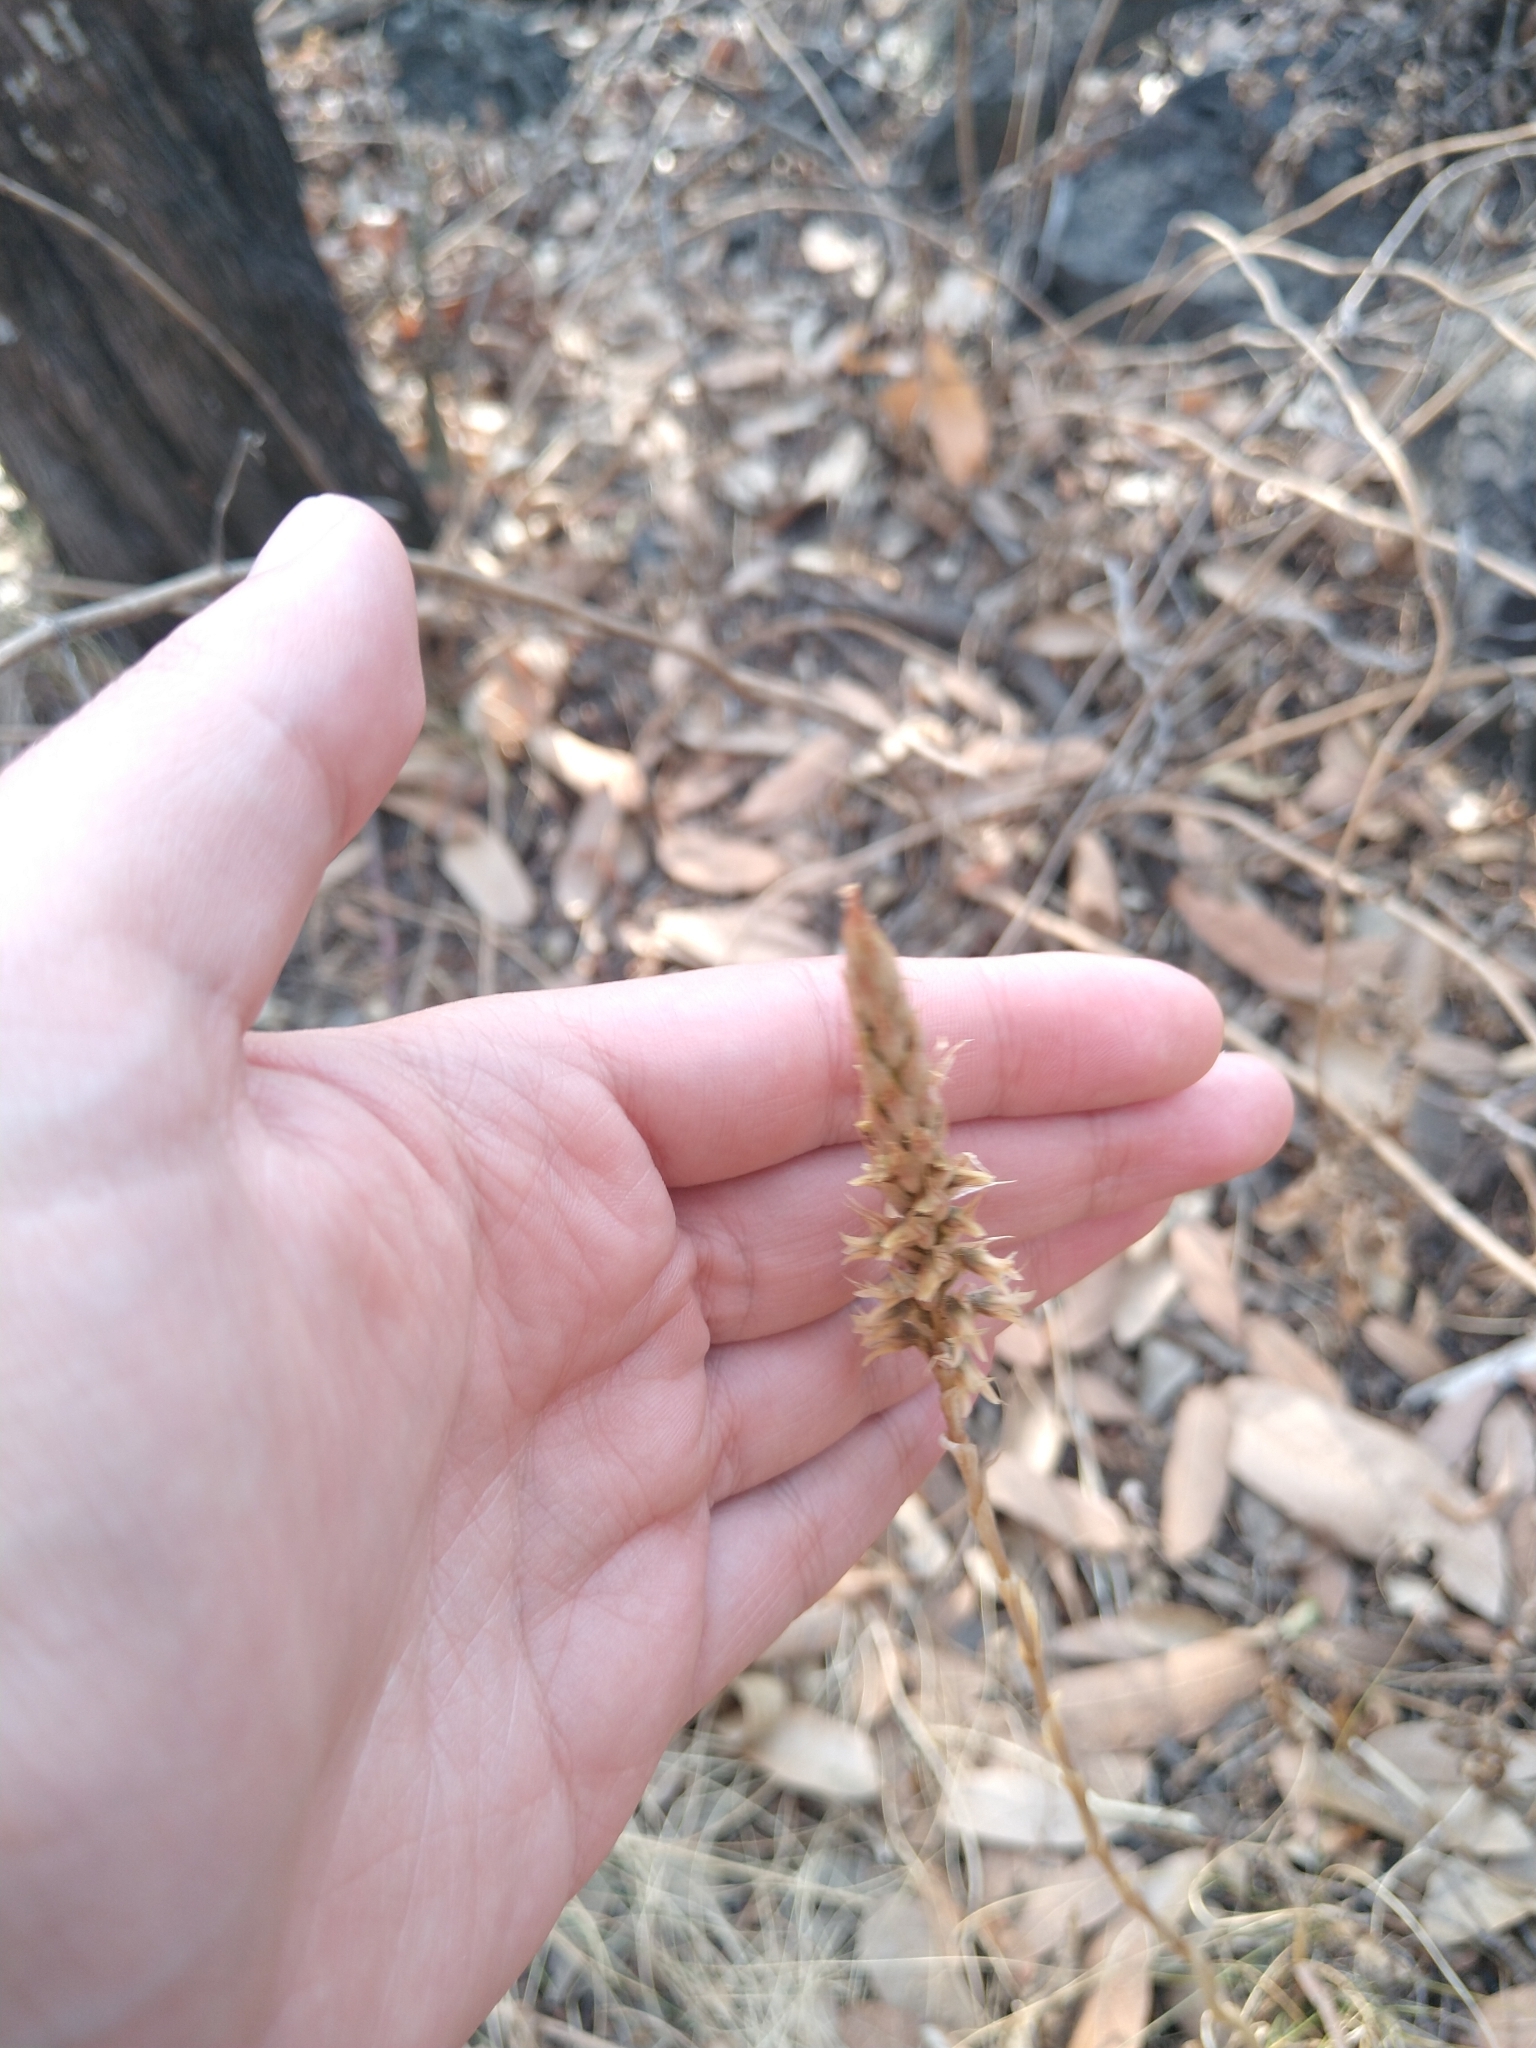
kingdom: Plantae
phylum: Tracheophyta
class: Liliopsida
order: Asparagales
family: Orchidaceae
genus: Aulosepalum
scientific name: Aulosepalum pyramidale
